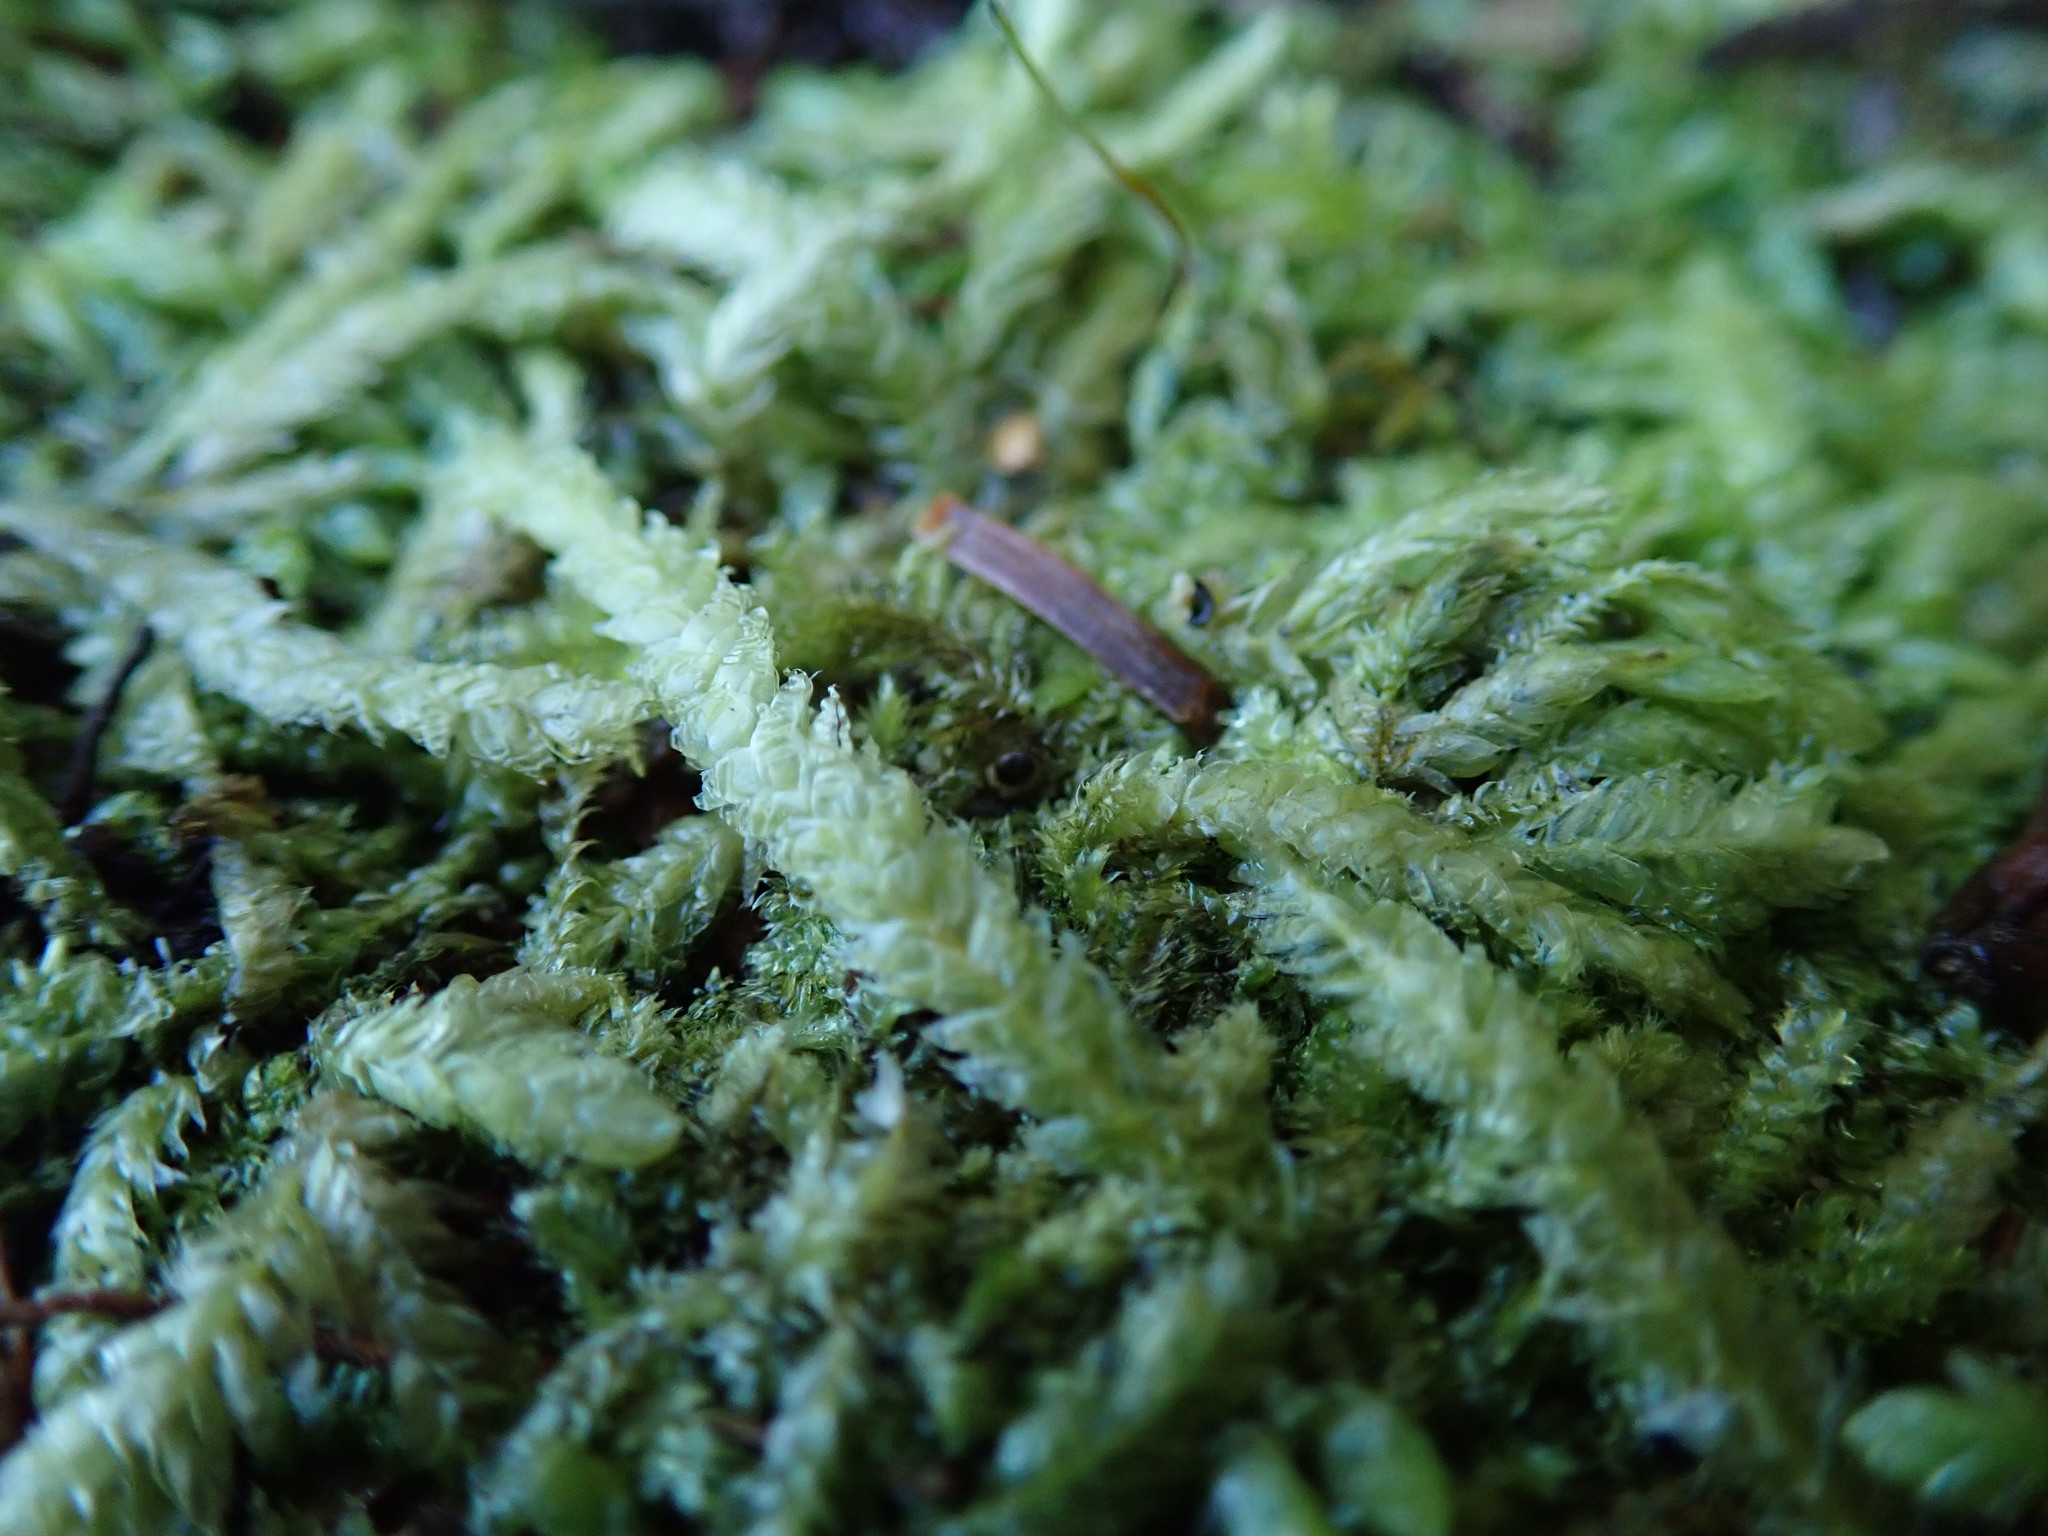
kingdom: Plantae
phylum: Bryophyta
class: Bryopsida
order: Hypnales
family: Plagiotheciaceae
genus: Plagiothecium
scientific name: Plagiothecium undulatum
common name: Waved silk-moss
